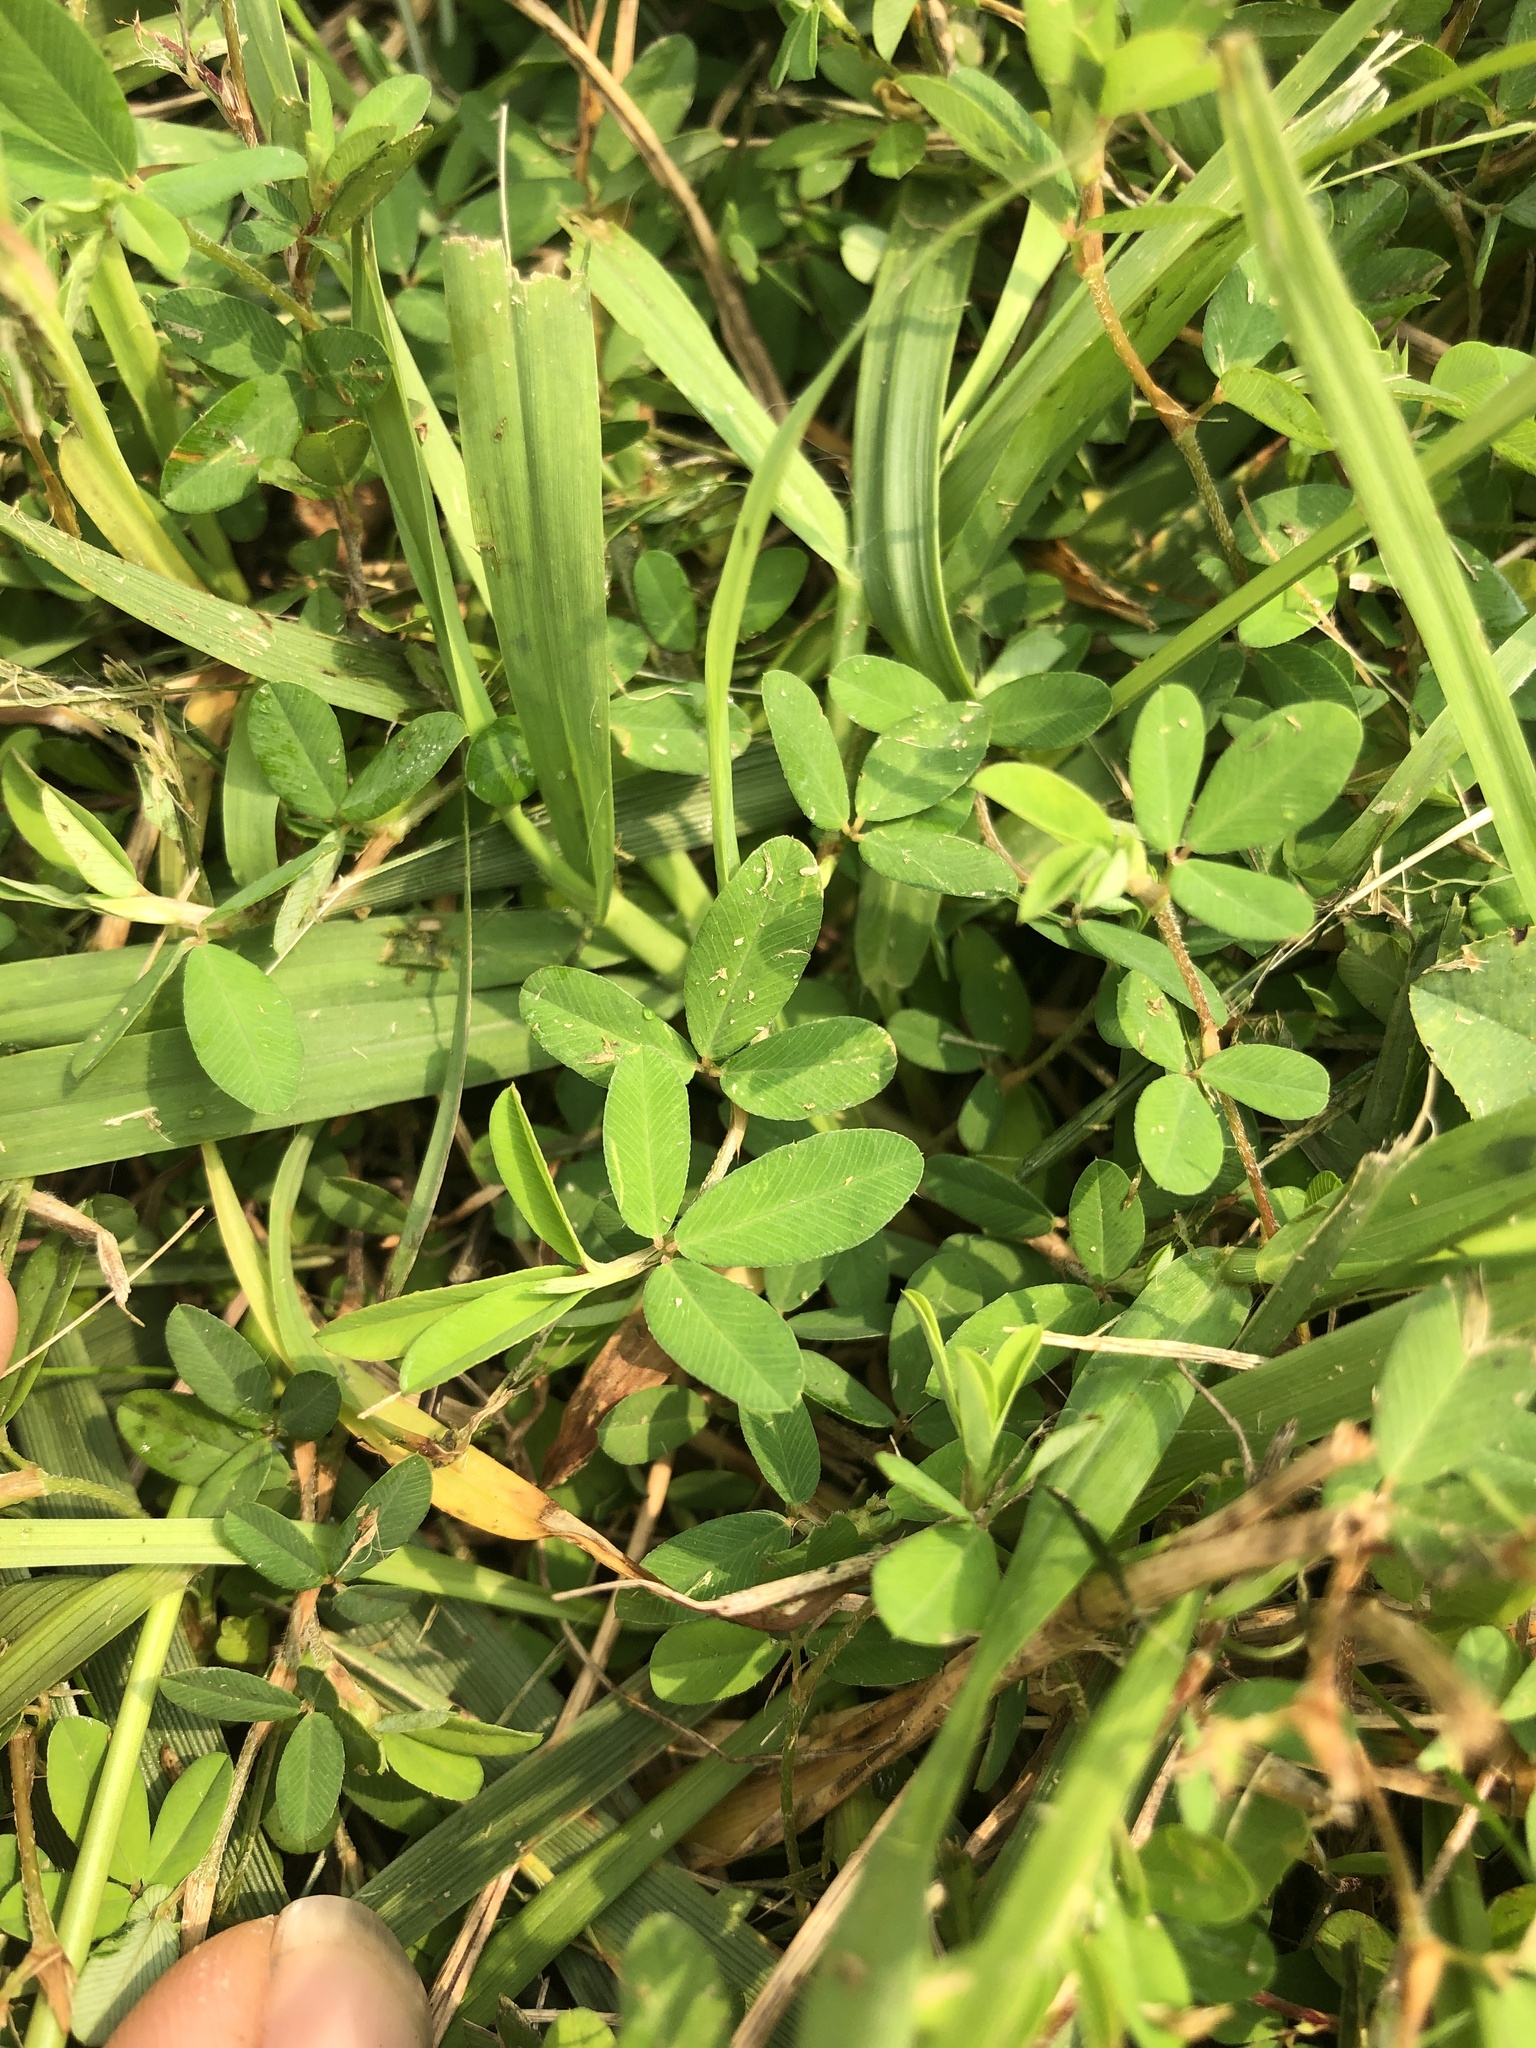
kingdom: Plantae
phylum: Tracheophyta
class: Magnoliopsida
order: Fabales
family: Fabaceae
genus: Kummerowia
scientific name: Kummerowia striata
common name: Japanese clover
